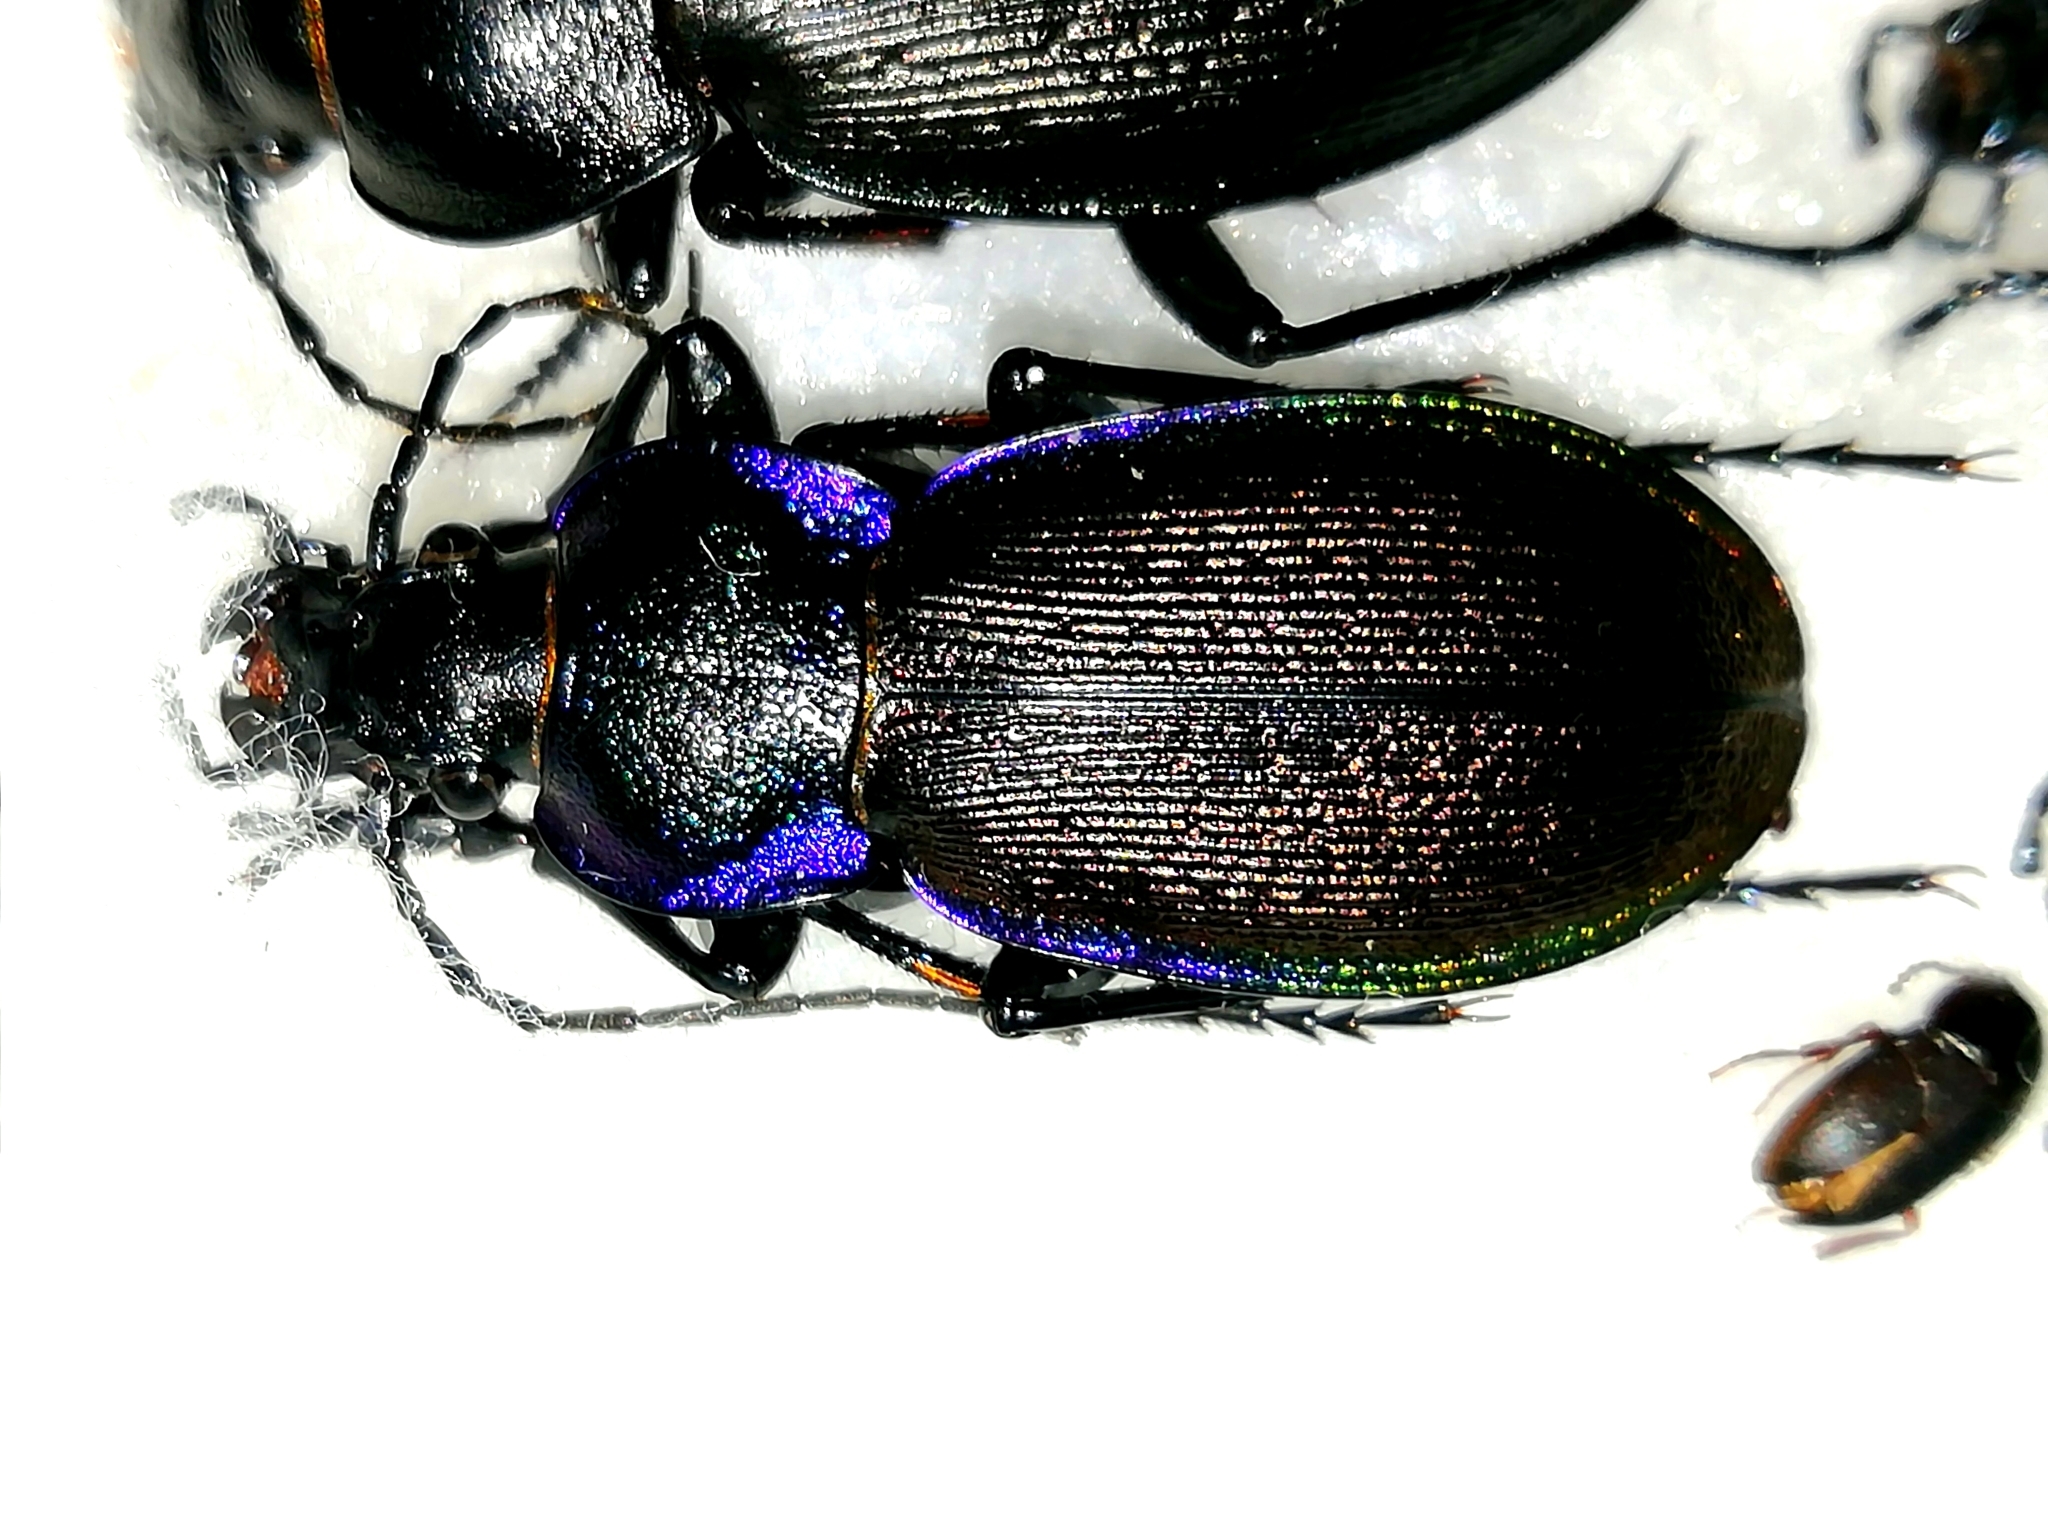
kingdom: Animalia
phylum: Arthropoda
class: Insecta
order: Coleoptera
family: Carabidae
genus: Carabus
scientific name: Carabus regalis
